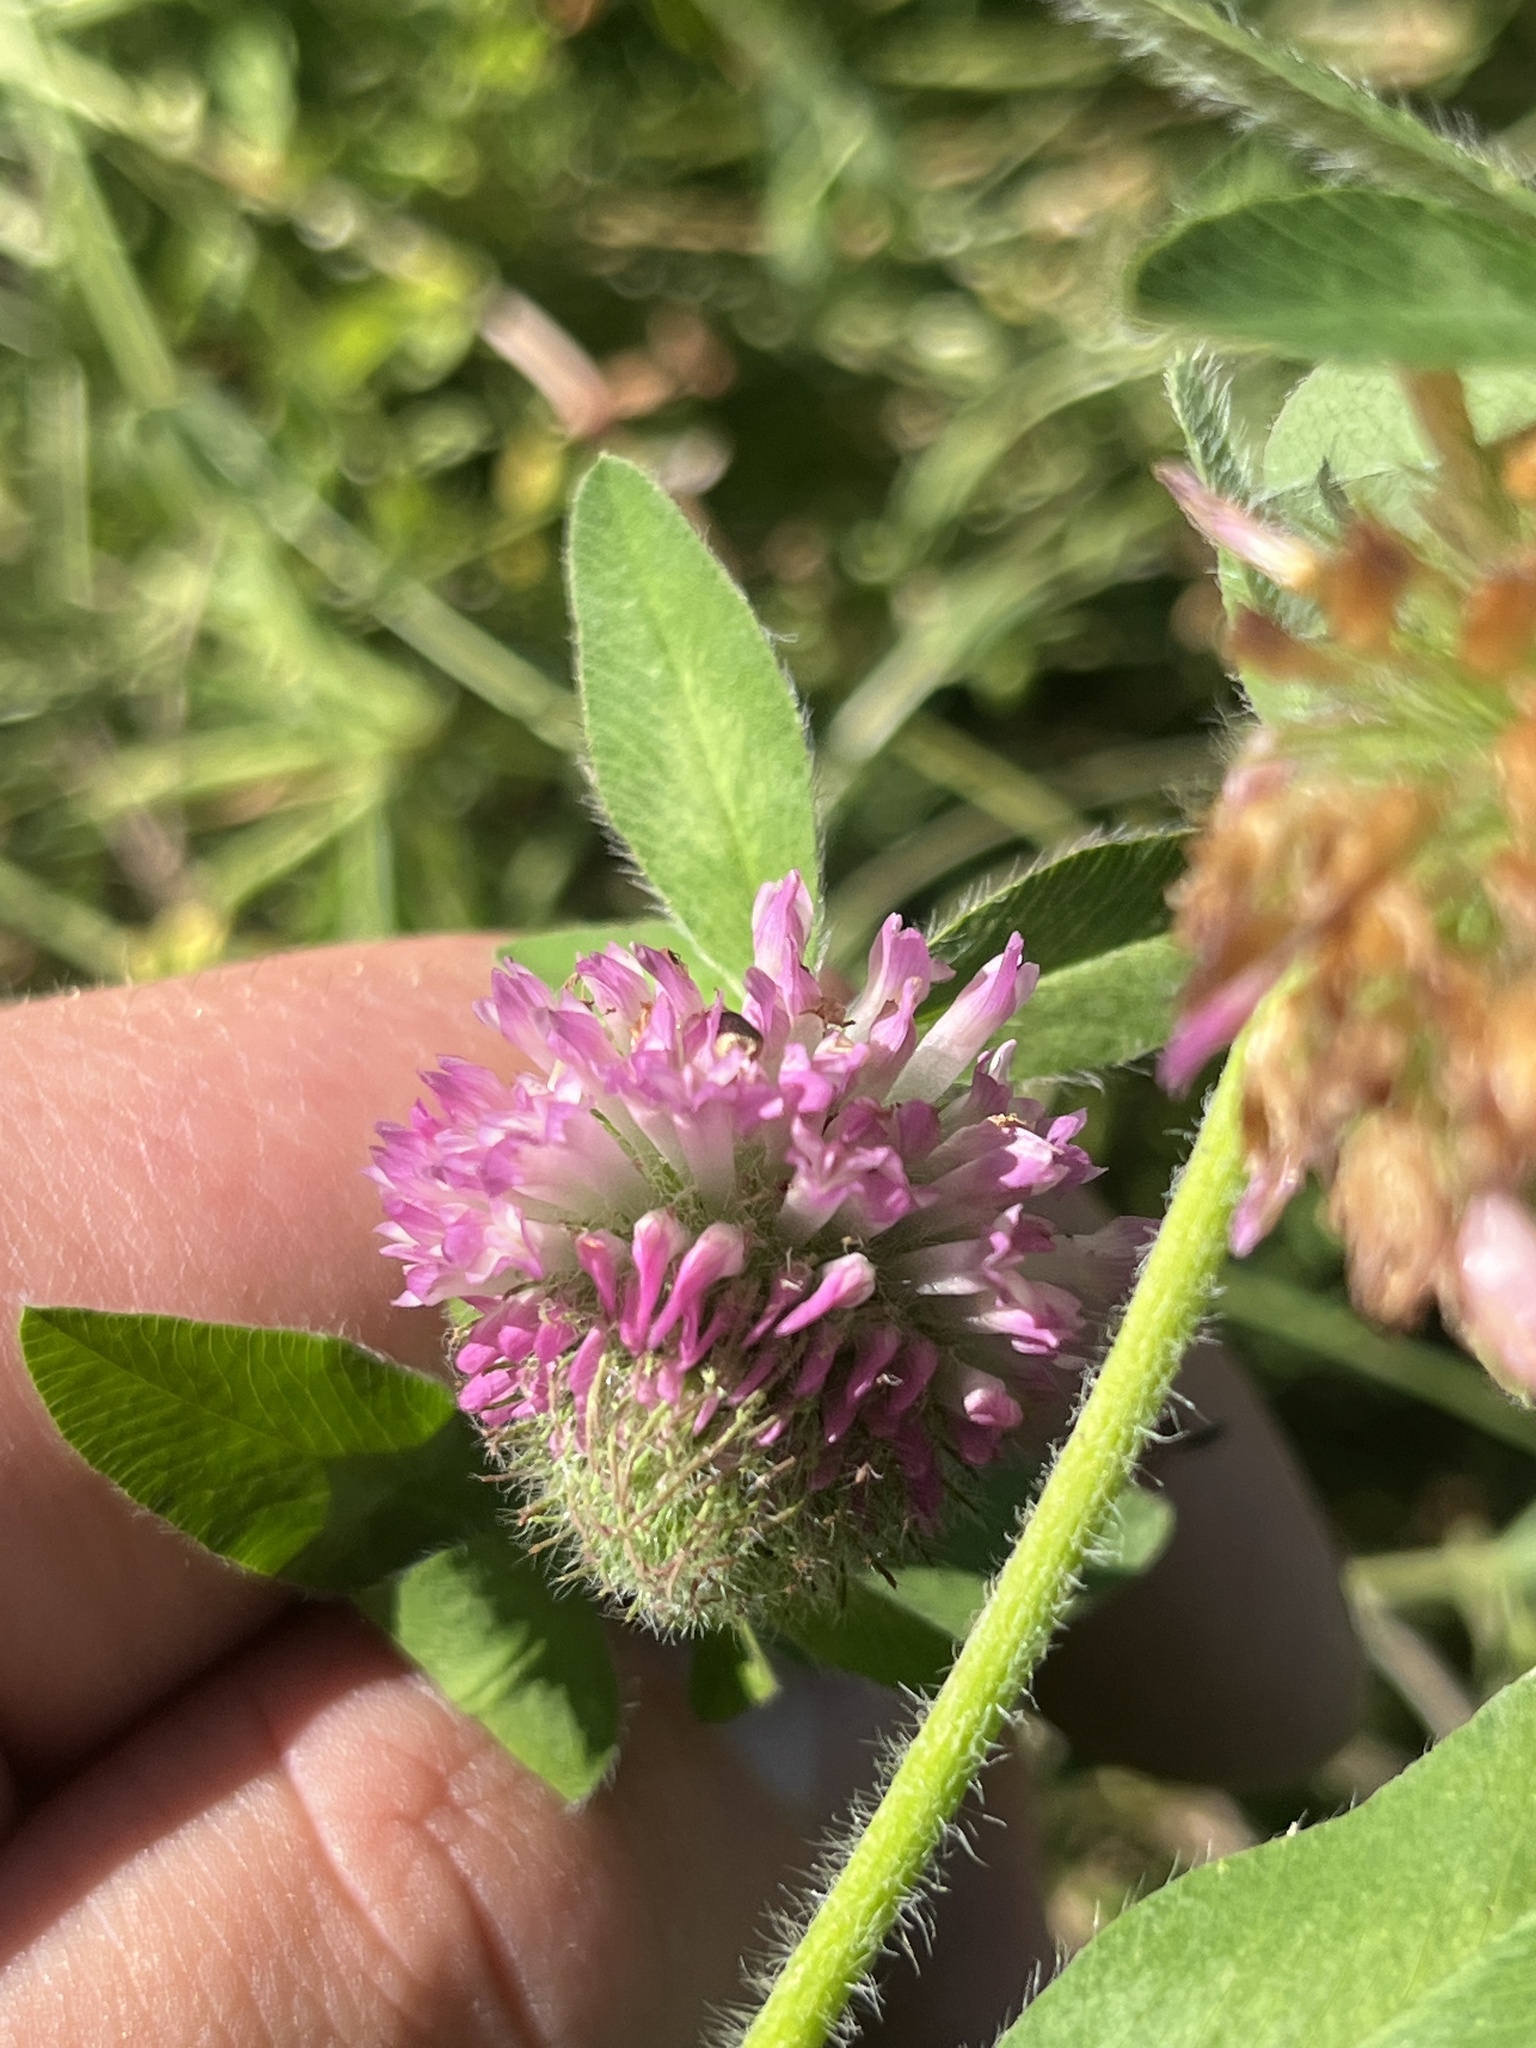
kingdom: Plantae
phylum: Tracheophyta
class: Magnoliopsida
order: Fabales
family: Fabaceae
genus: Trifolium
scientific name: Trifolium pratense
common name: Red clover
